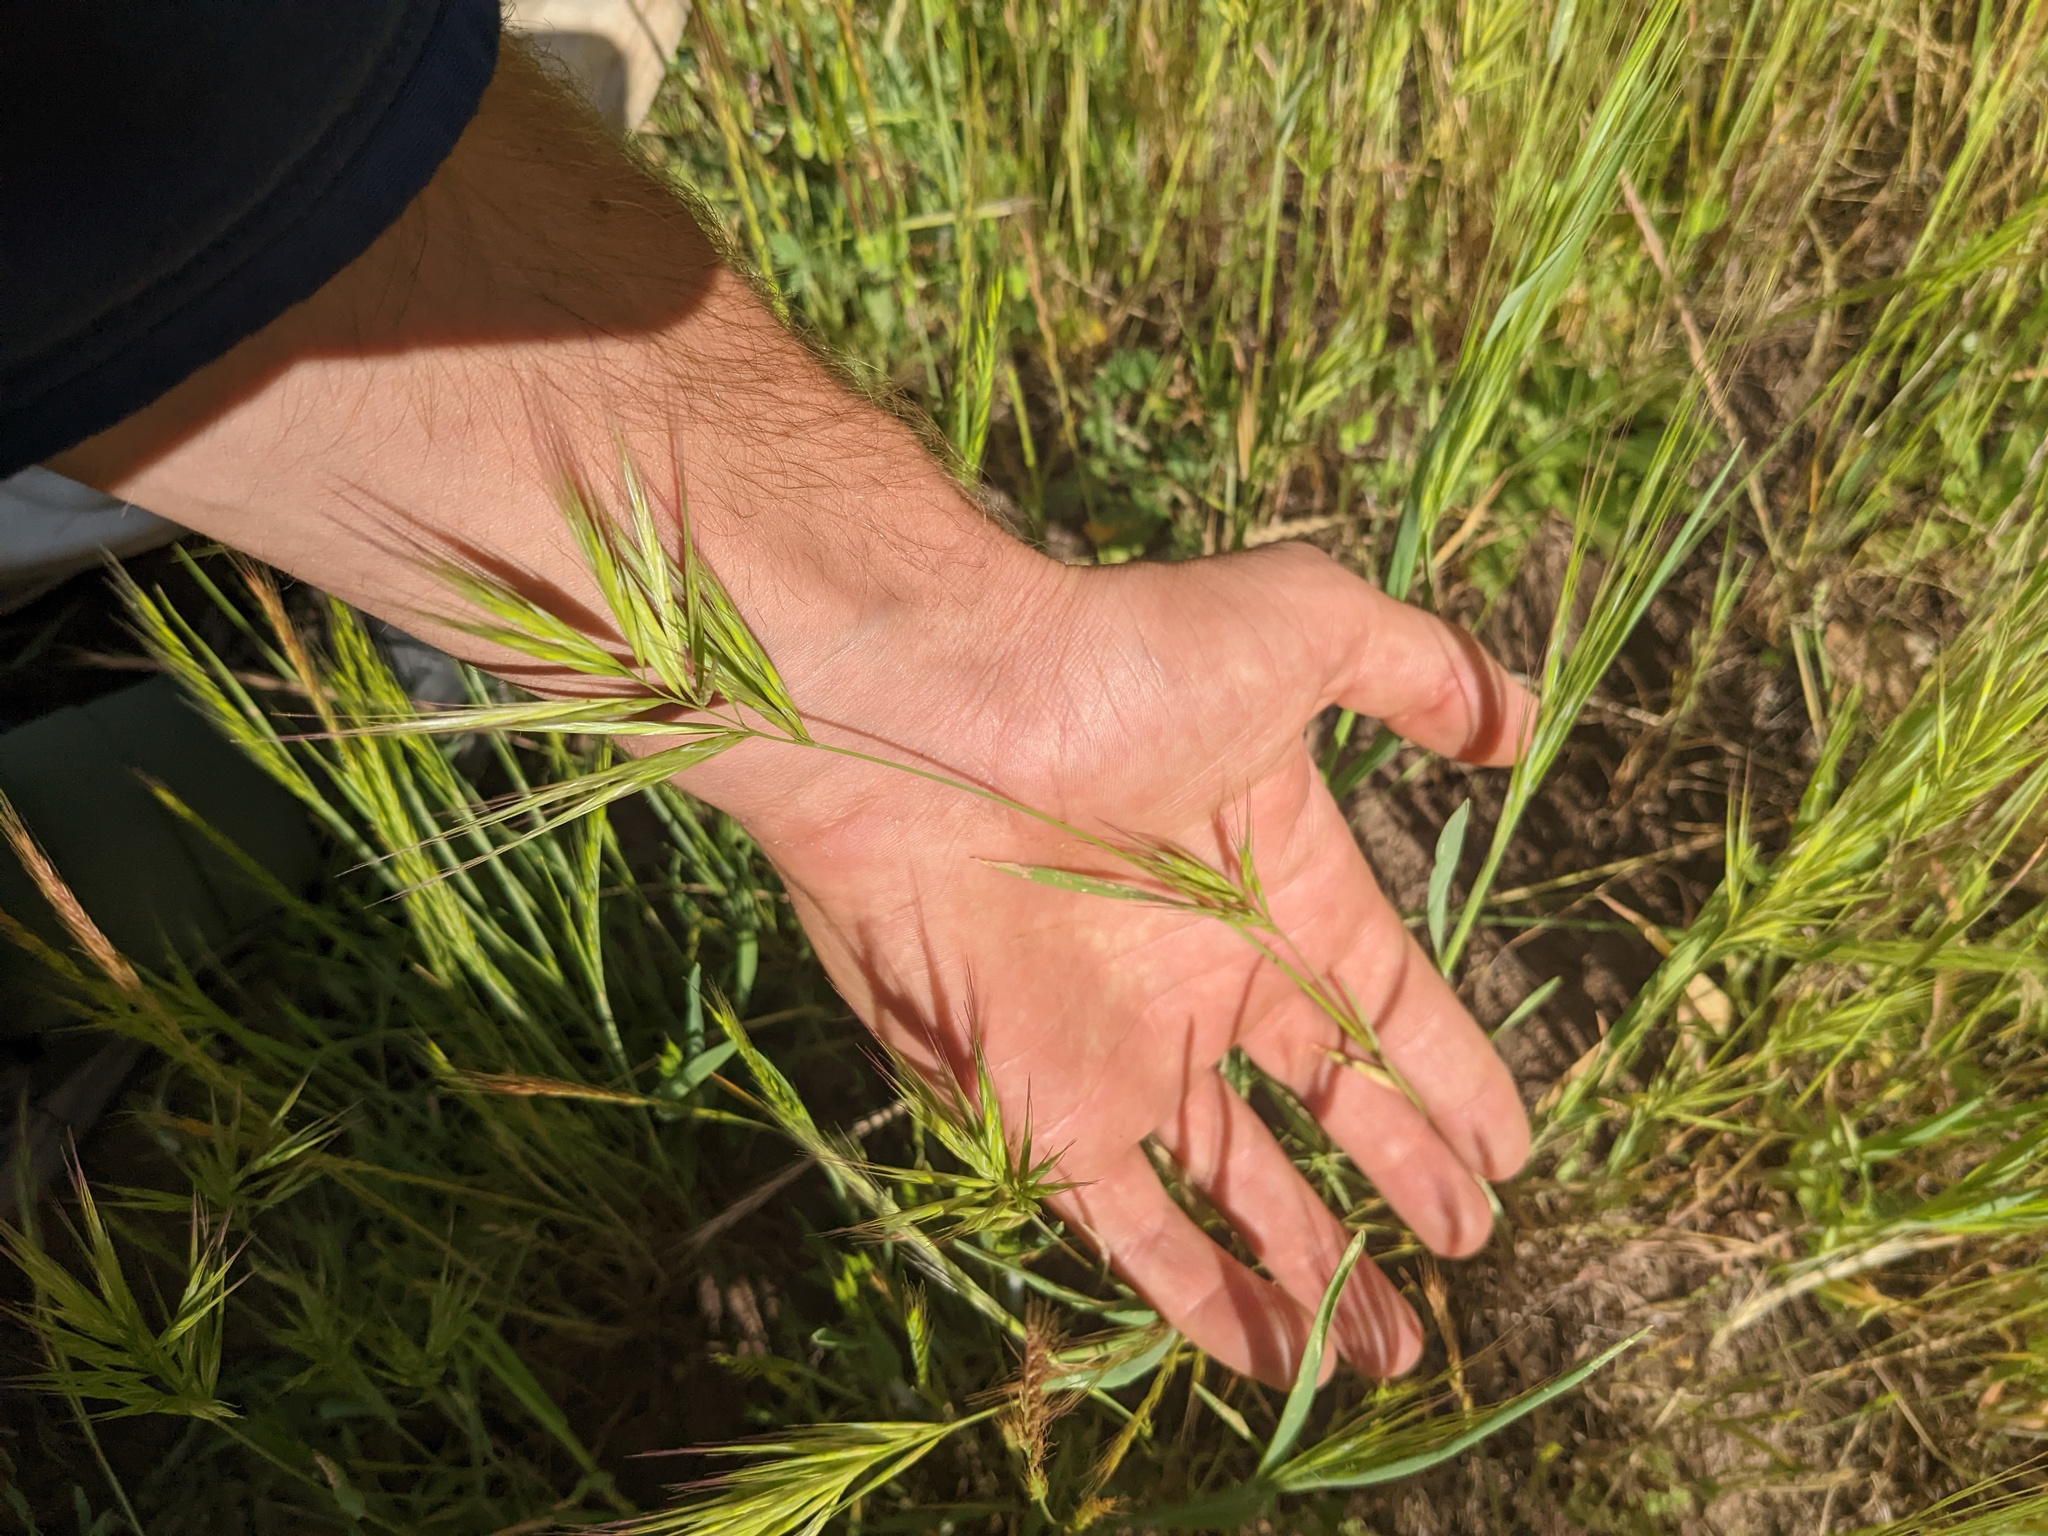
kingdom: Plantae
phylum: Tracheophyta
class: Liliopsida
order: Poales
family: Poaceae
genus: Bromus
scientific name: Bromus madritensis
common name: Compact brome
